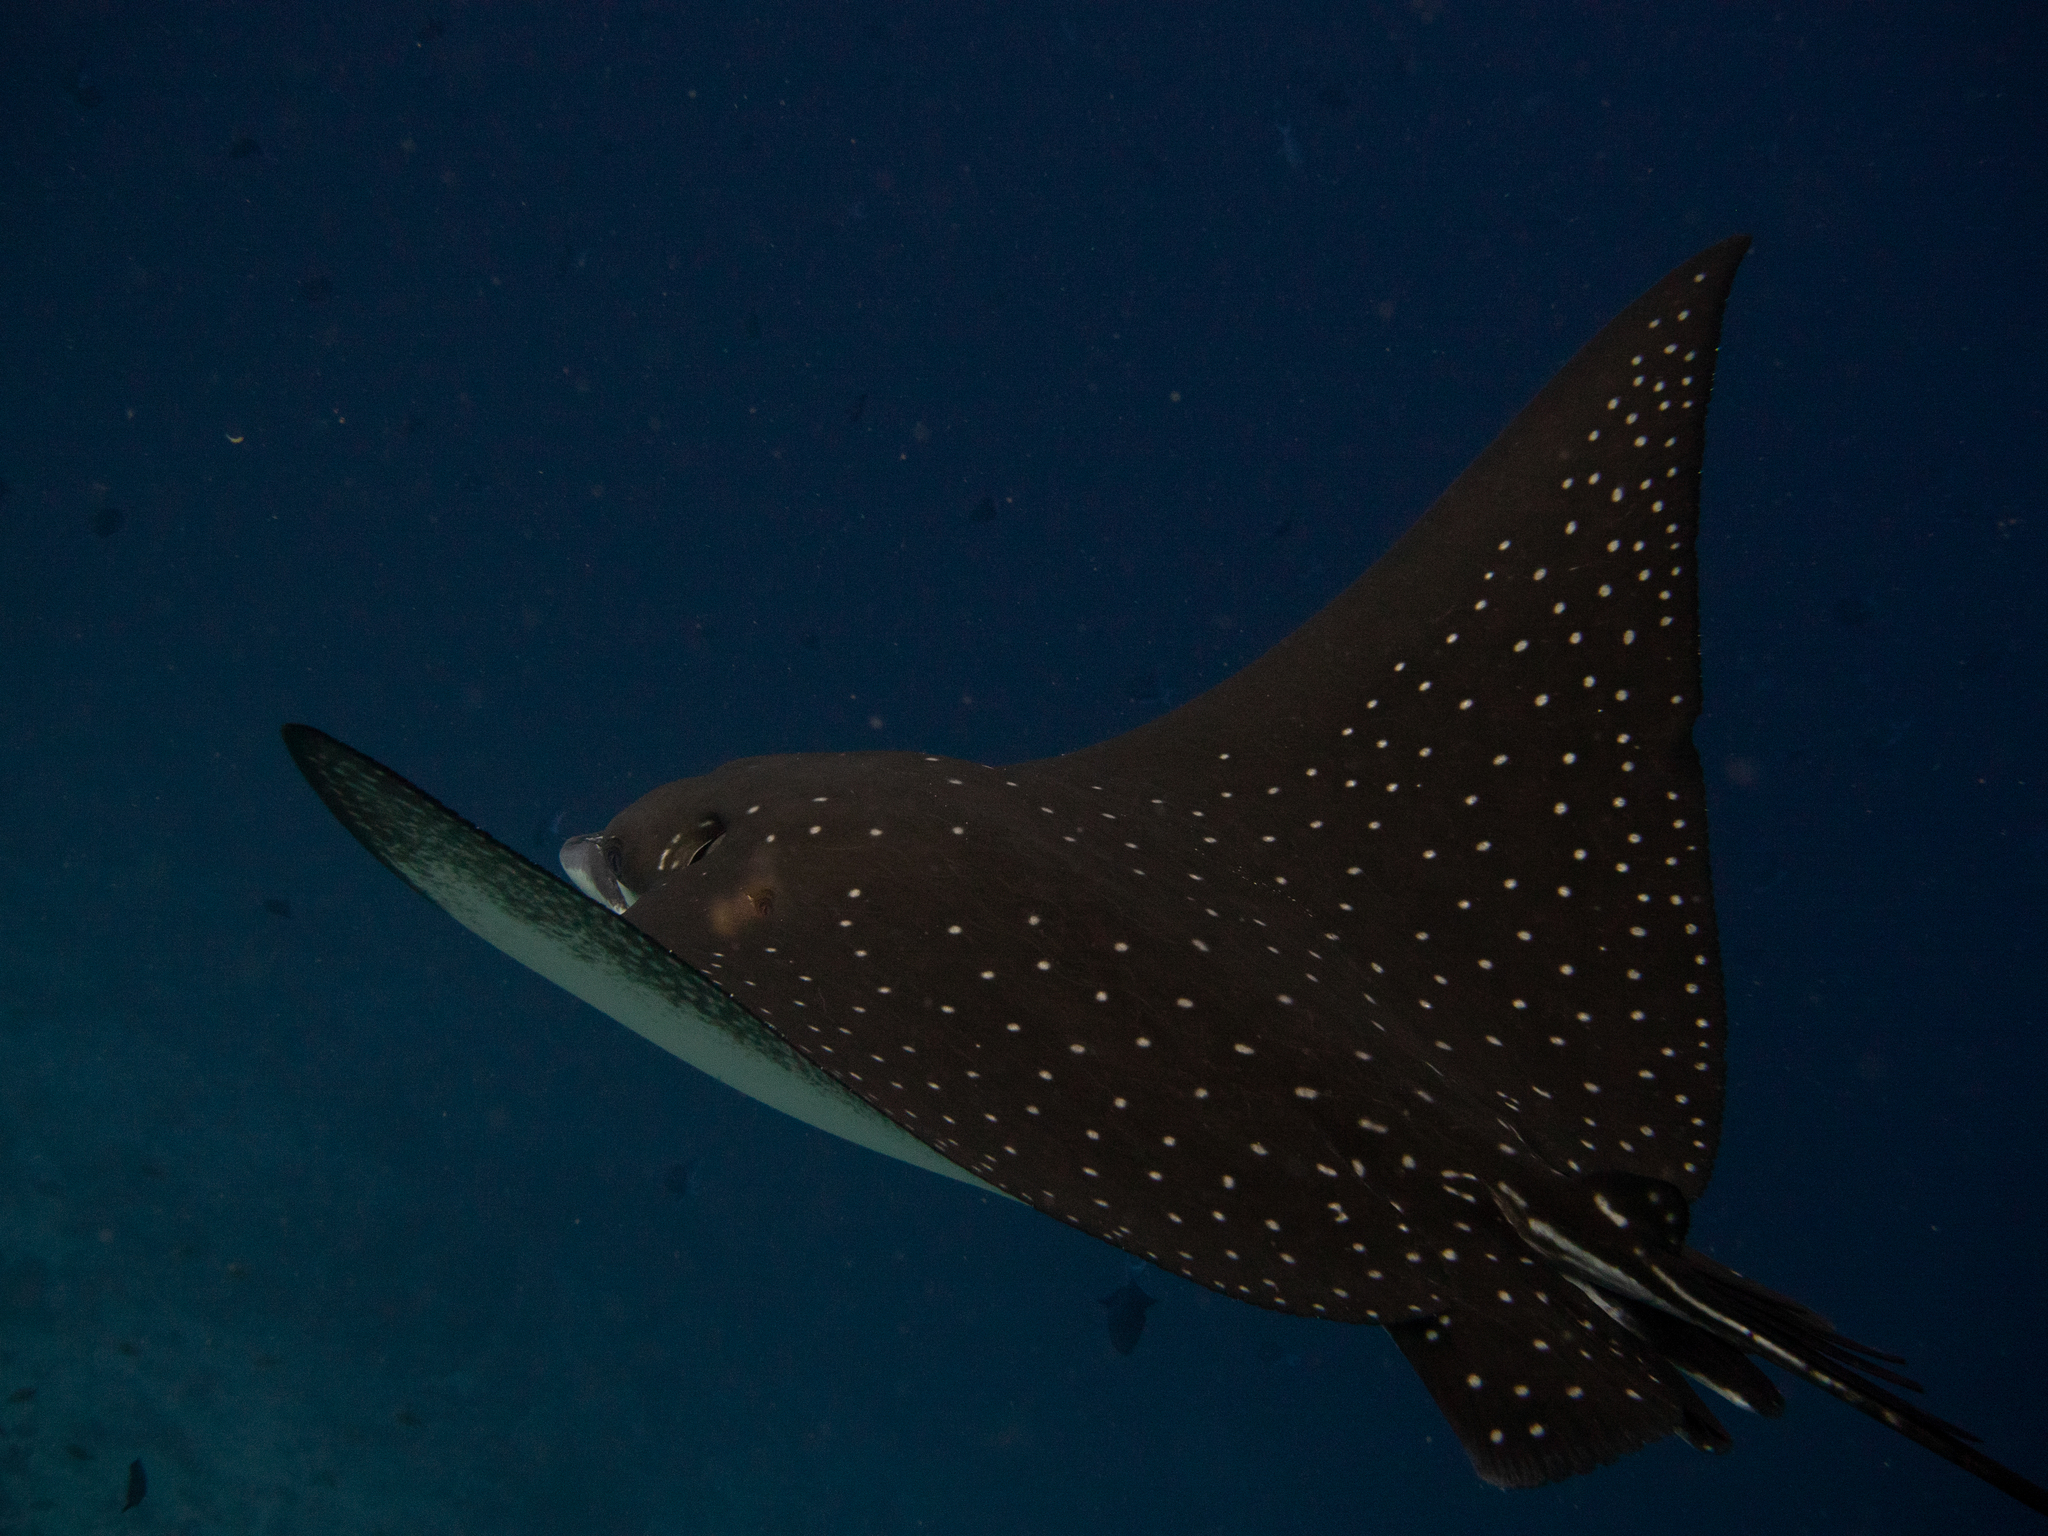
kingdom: Animalia
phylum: Chordata
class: Elasmobranchii
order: Myliobatiformes
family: Myliobatidae
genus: Aetobatus
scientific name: Aetobatus ocellatus
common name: Ocellated eagle ray
